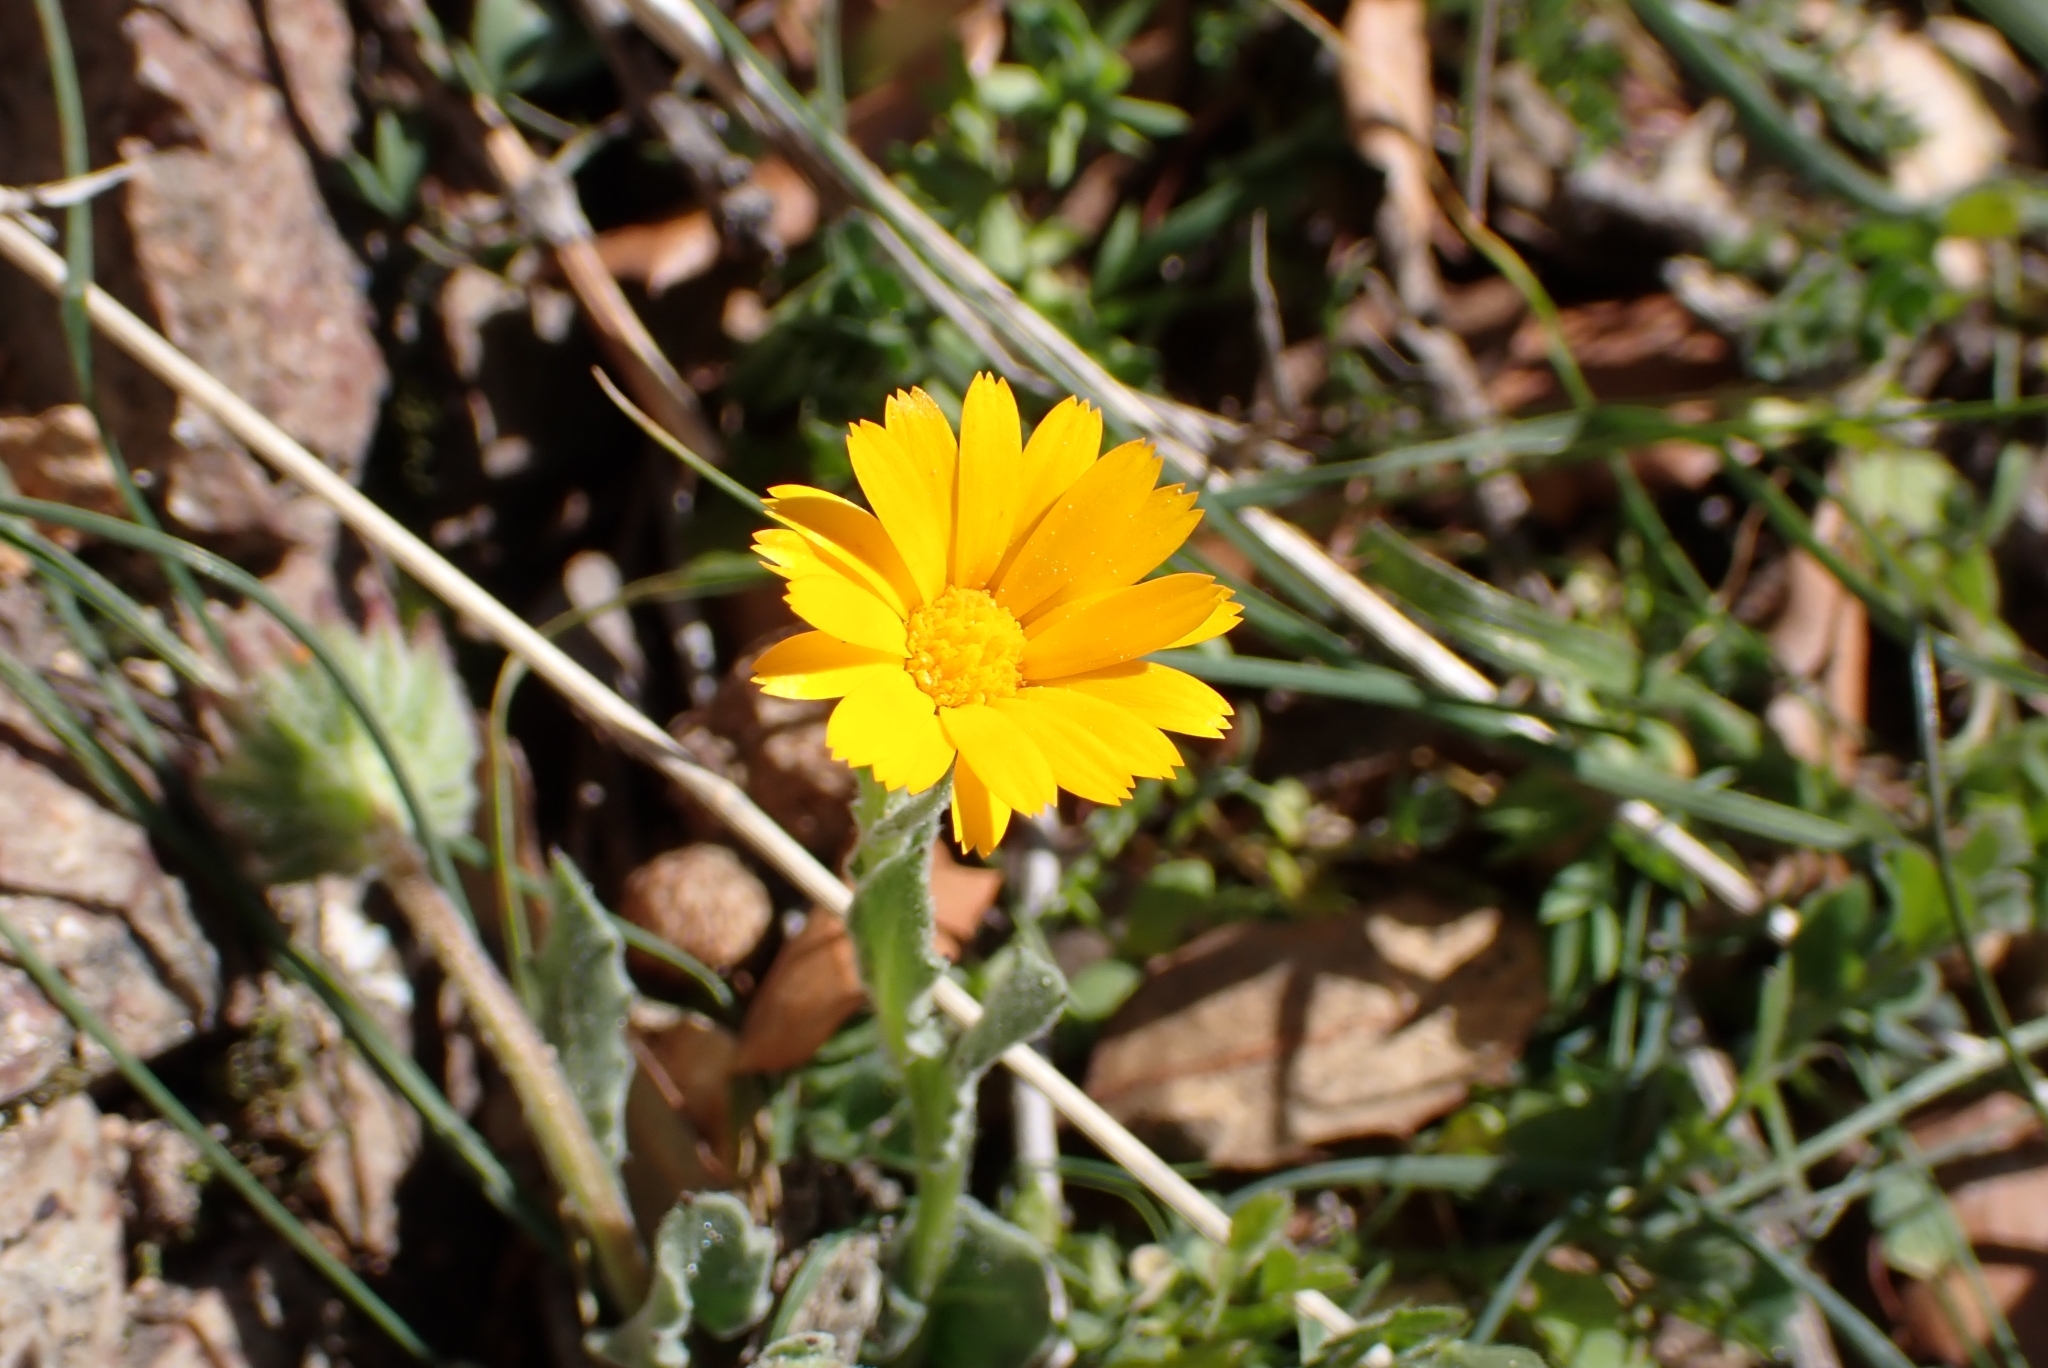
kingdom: Plantae
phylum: Tracheophyta
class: Magnoliopsida
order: Asterales
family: Asteraceae
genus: Calendula
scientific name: Calendula arvensis
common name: Field marigold
